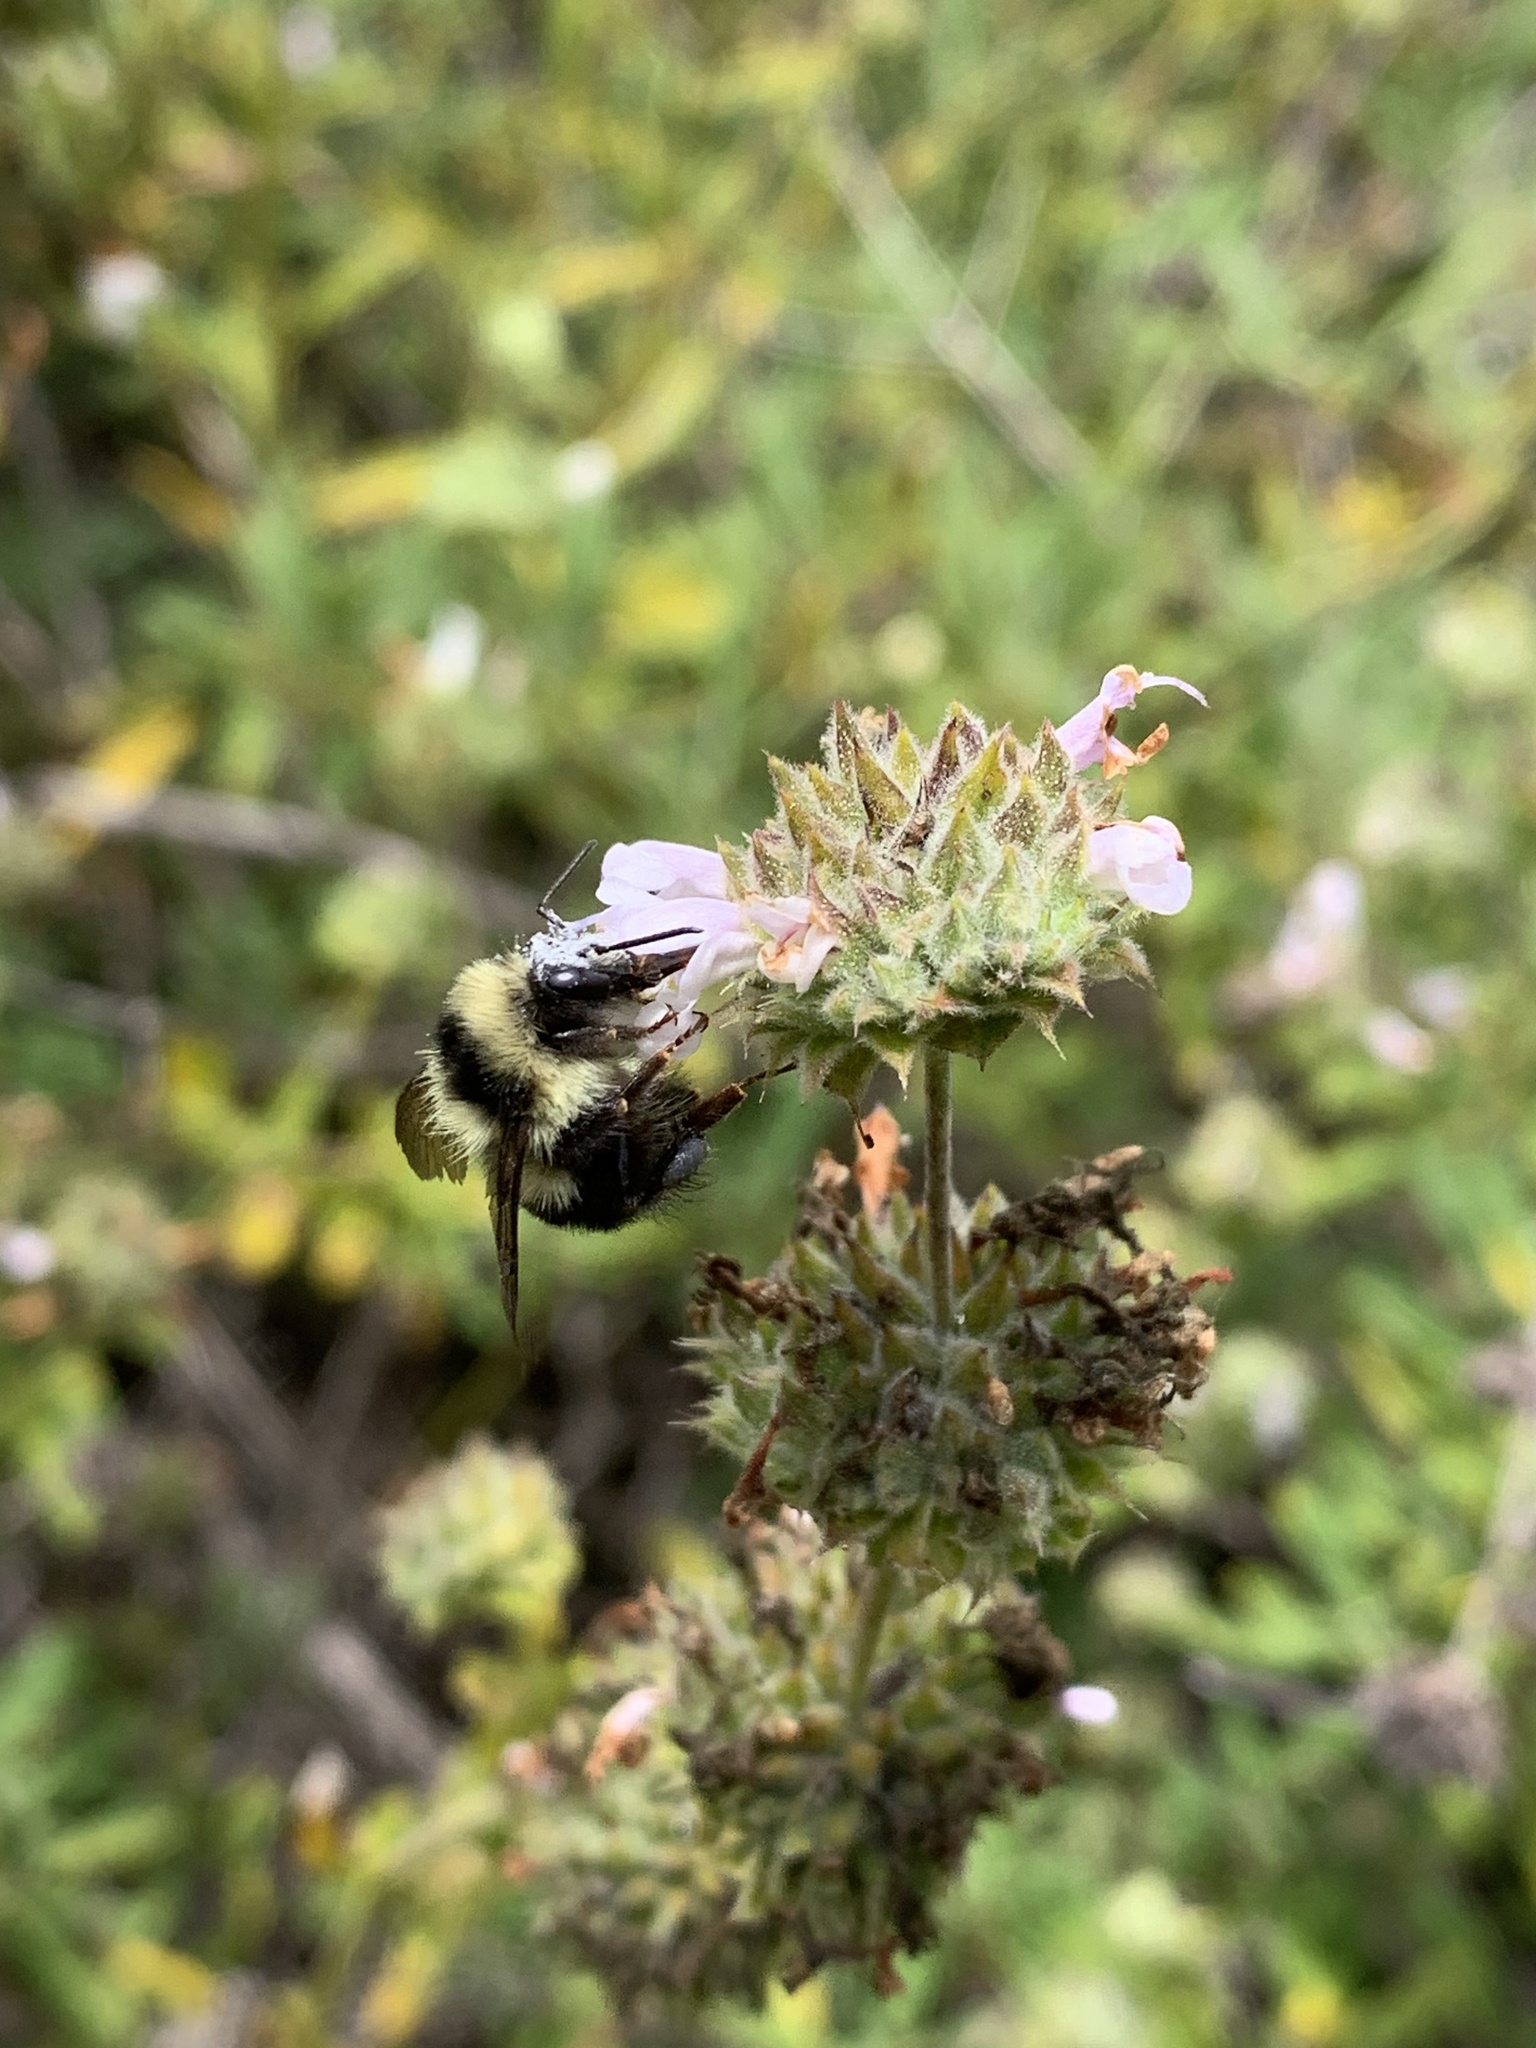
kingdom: Animalia
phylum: Arthropoda
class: Insecta
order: Hymenoptera
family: Apidae
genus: Bombus
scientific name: Bombus melanopygus
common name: Black tail bumble bee
